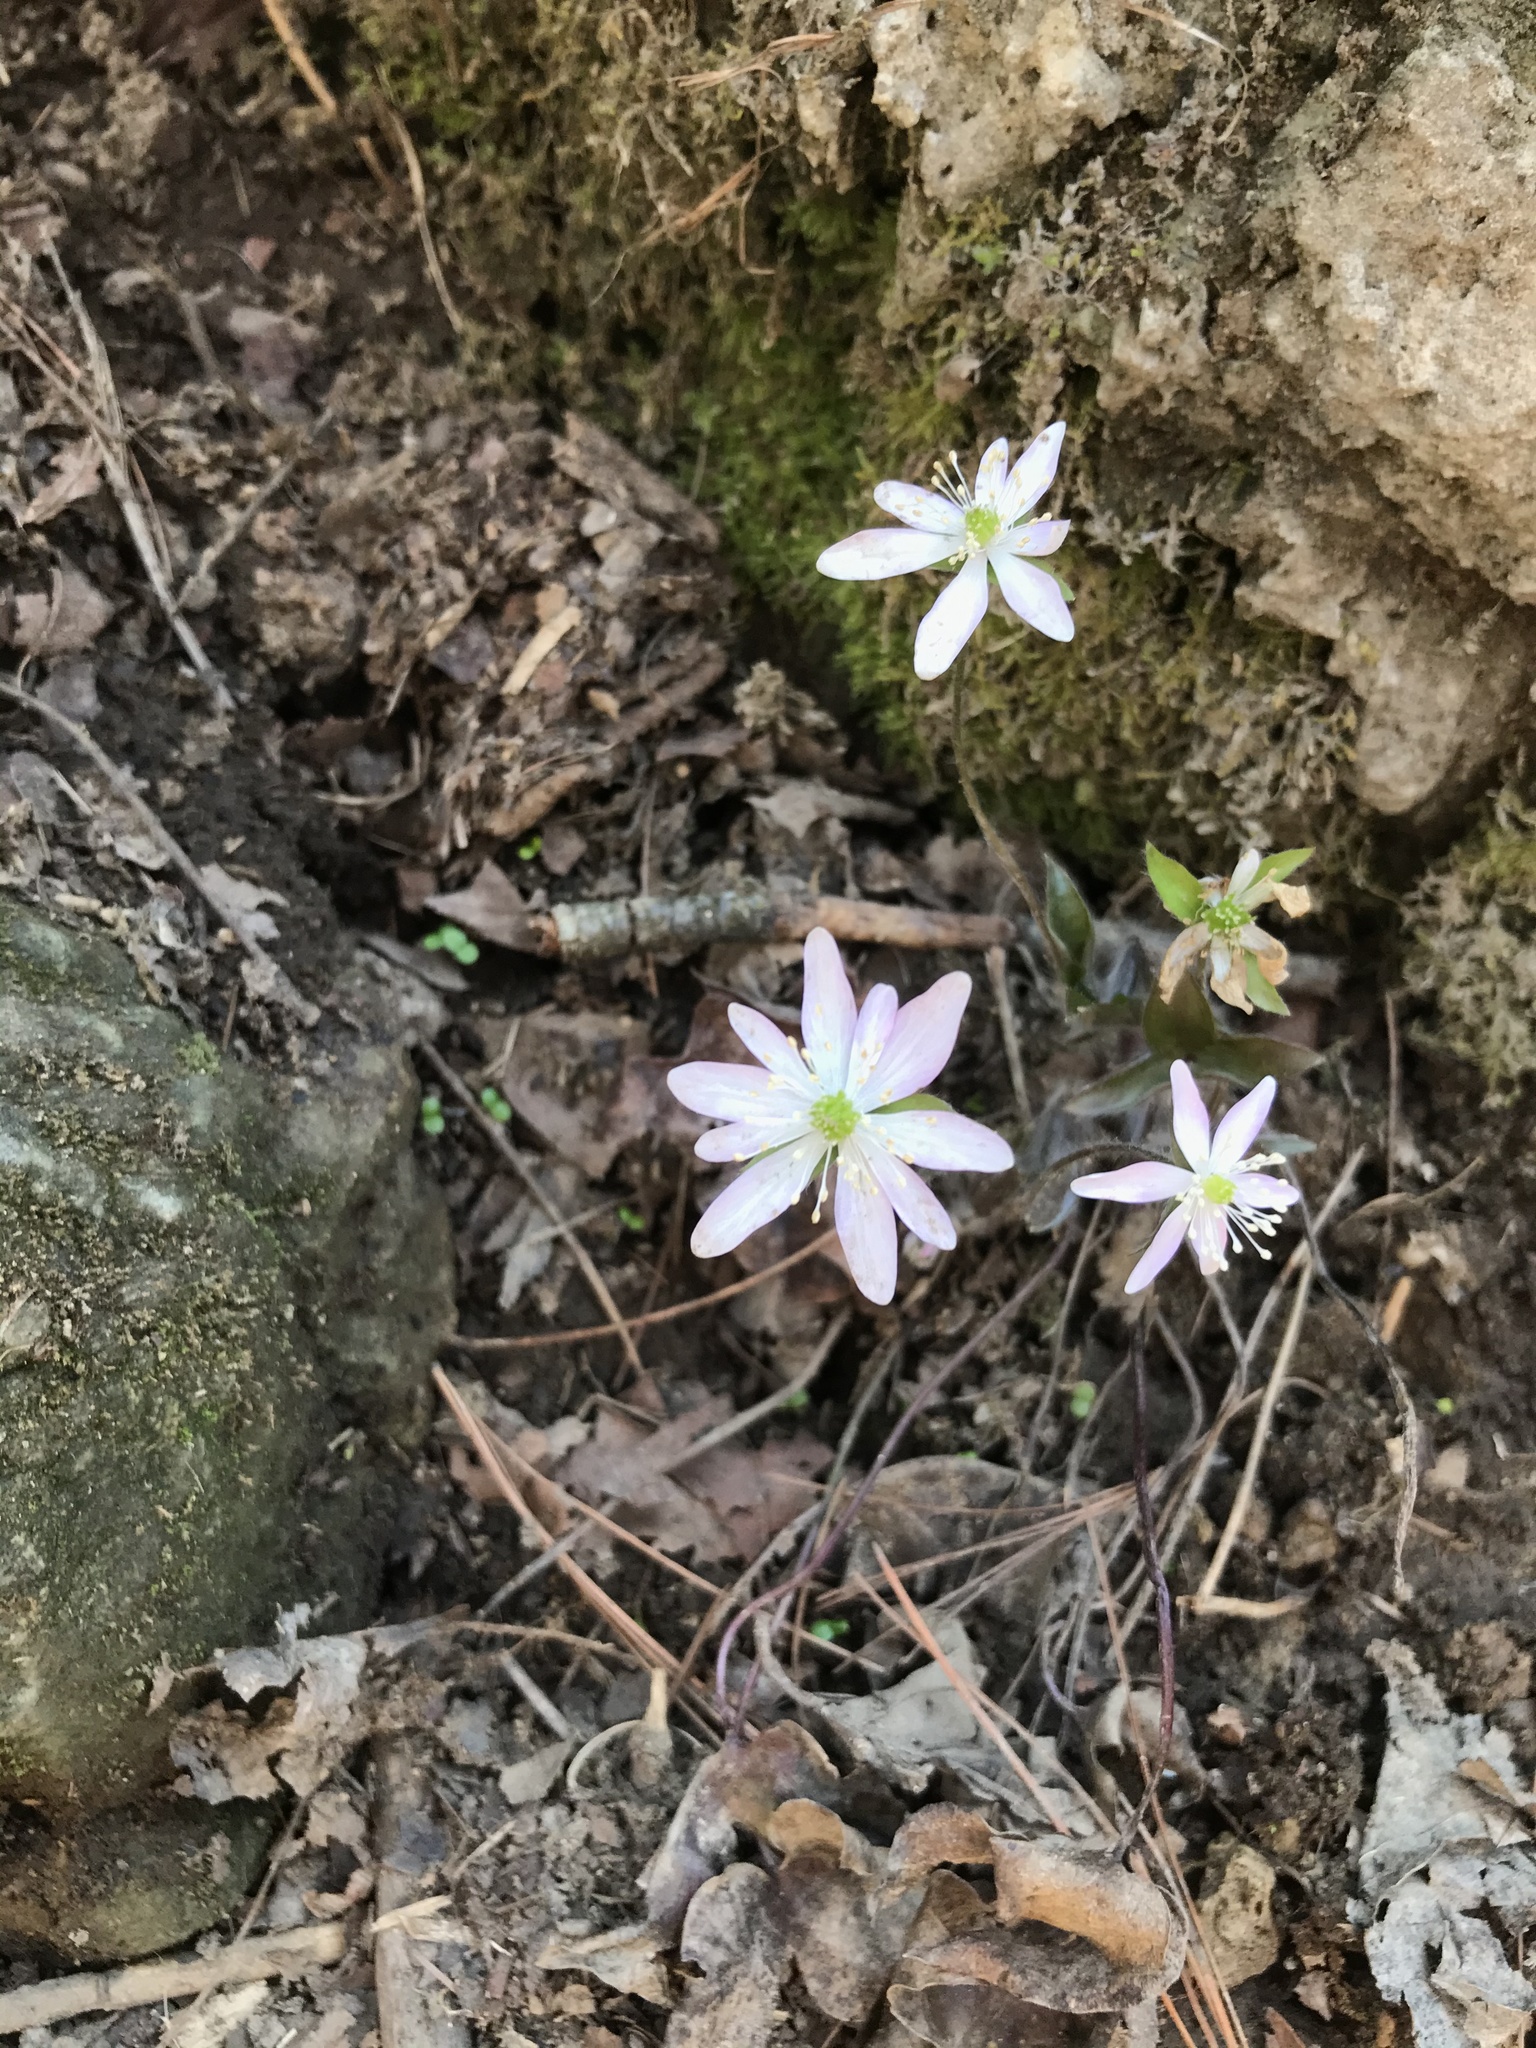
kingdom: Plantae
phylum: Tracheophyta
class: Magnoliopsida
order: Ranunculales
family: Ranunculaceae
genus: Hepatica
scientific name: Hepatica acutiloba
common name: Sharp-lobed hepatica
